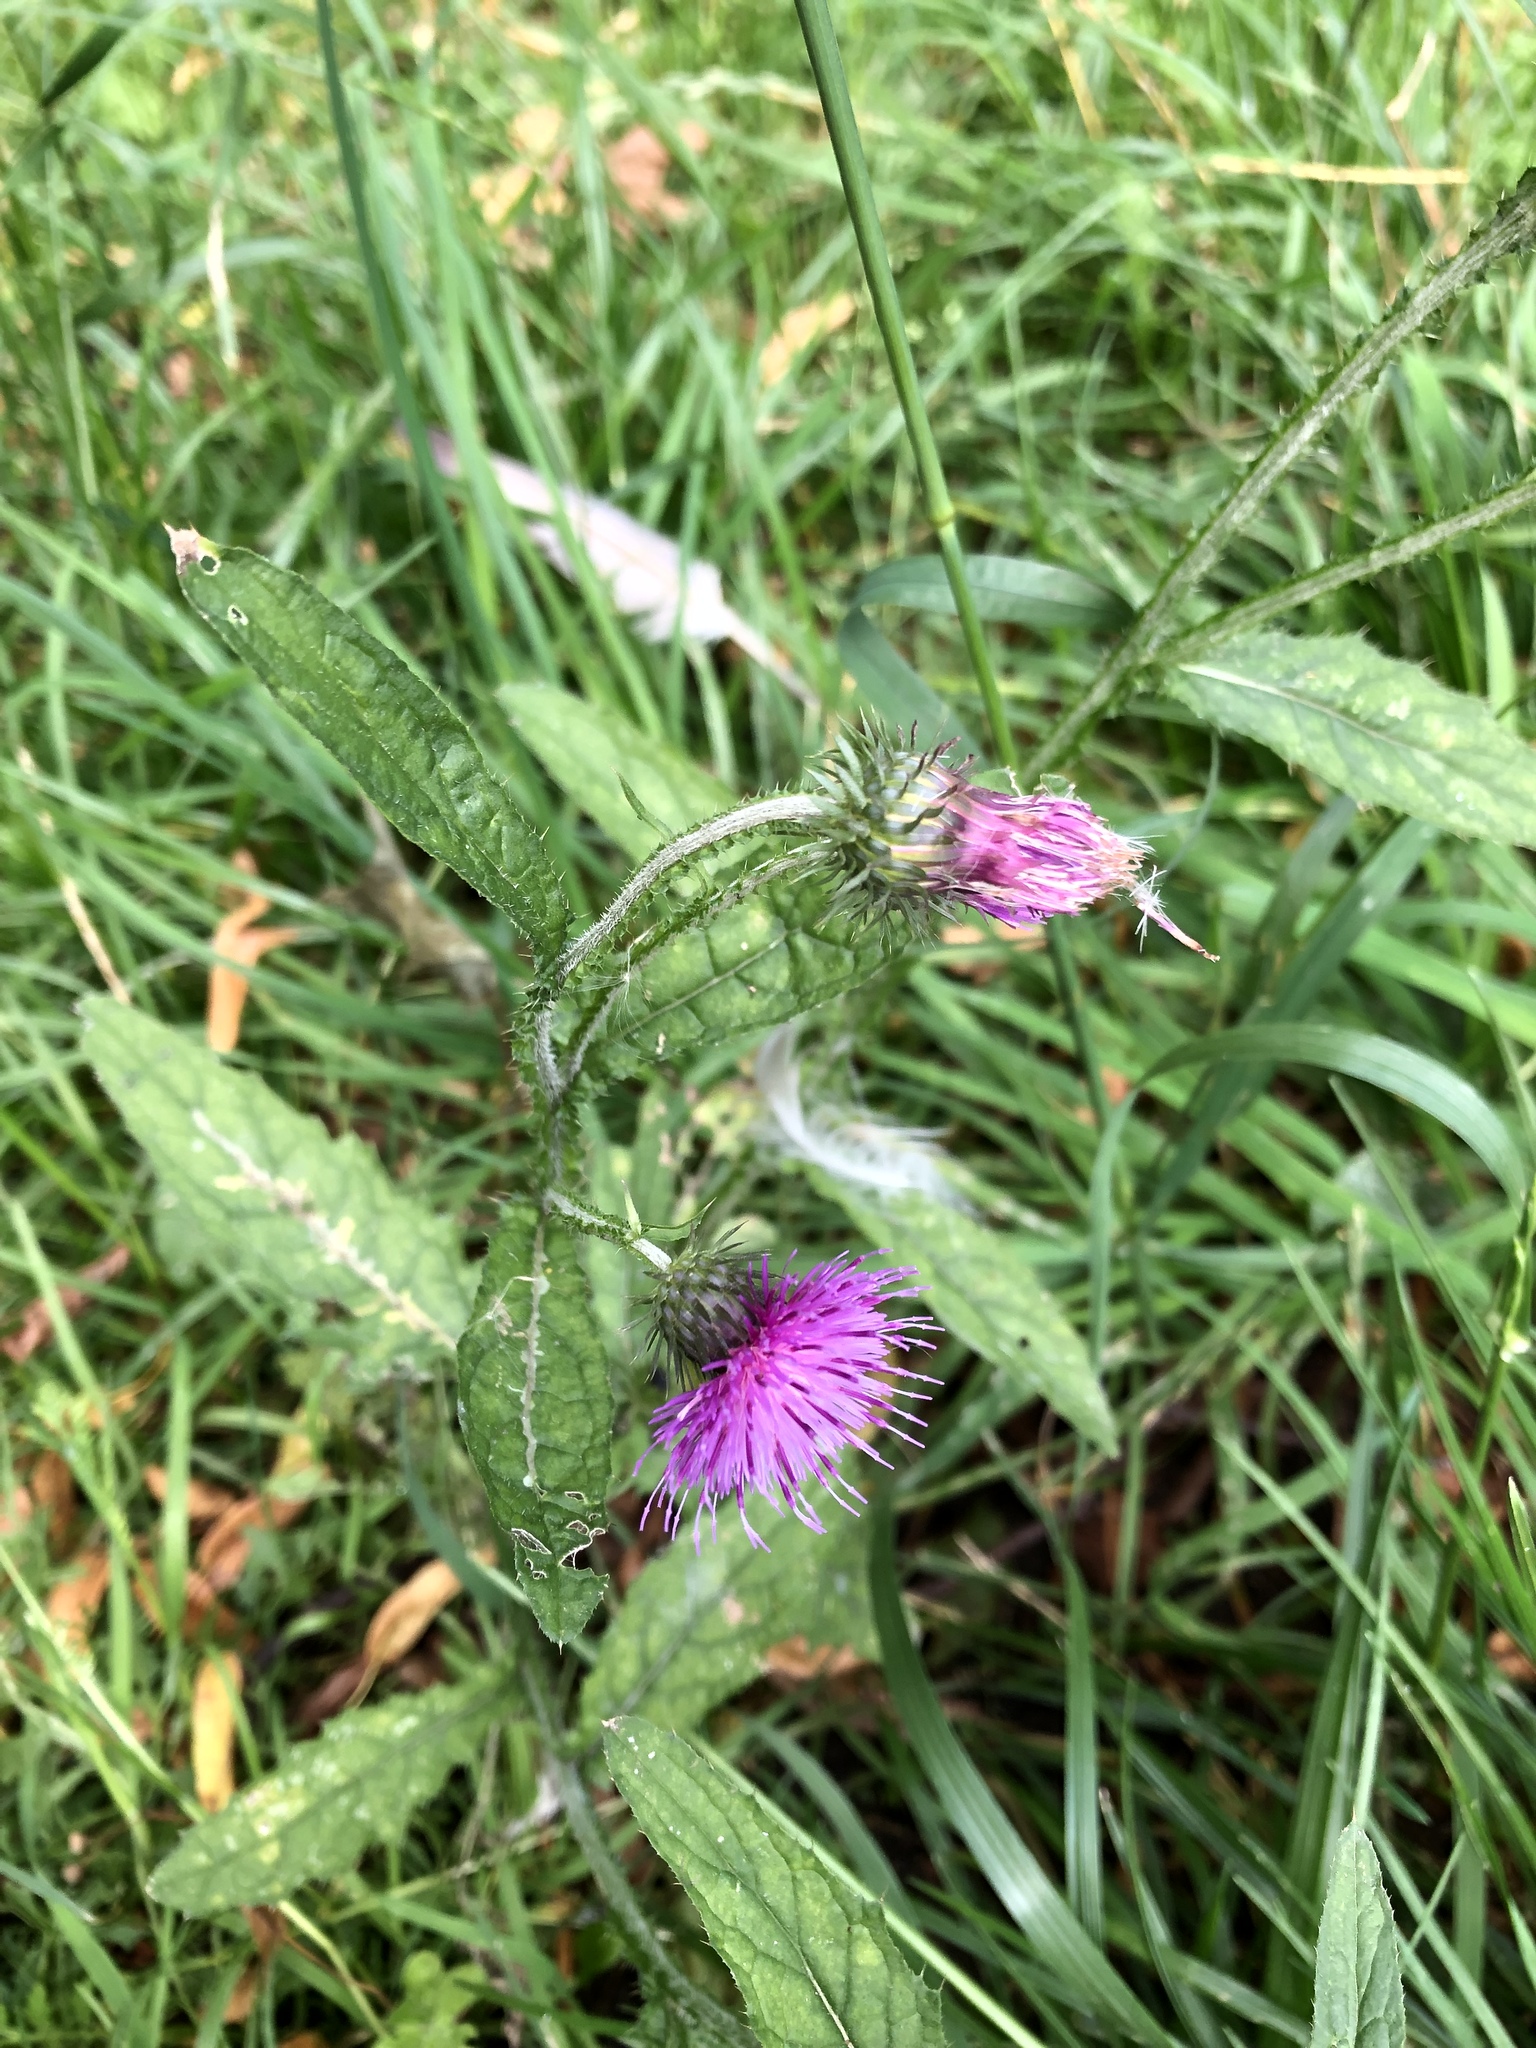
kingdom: Plantae
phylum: Tracheophyta
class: Magnoliopsida
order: Asterales
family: Asteraceae
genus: Carduus
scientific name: Carduus crispus
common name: Welted thistle
